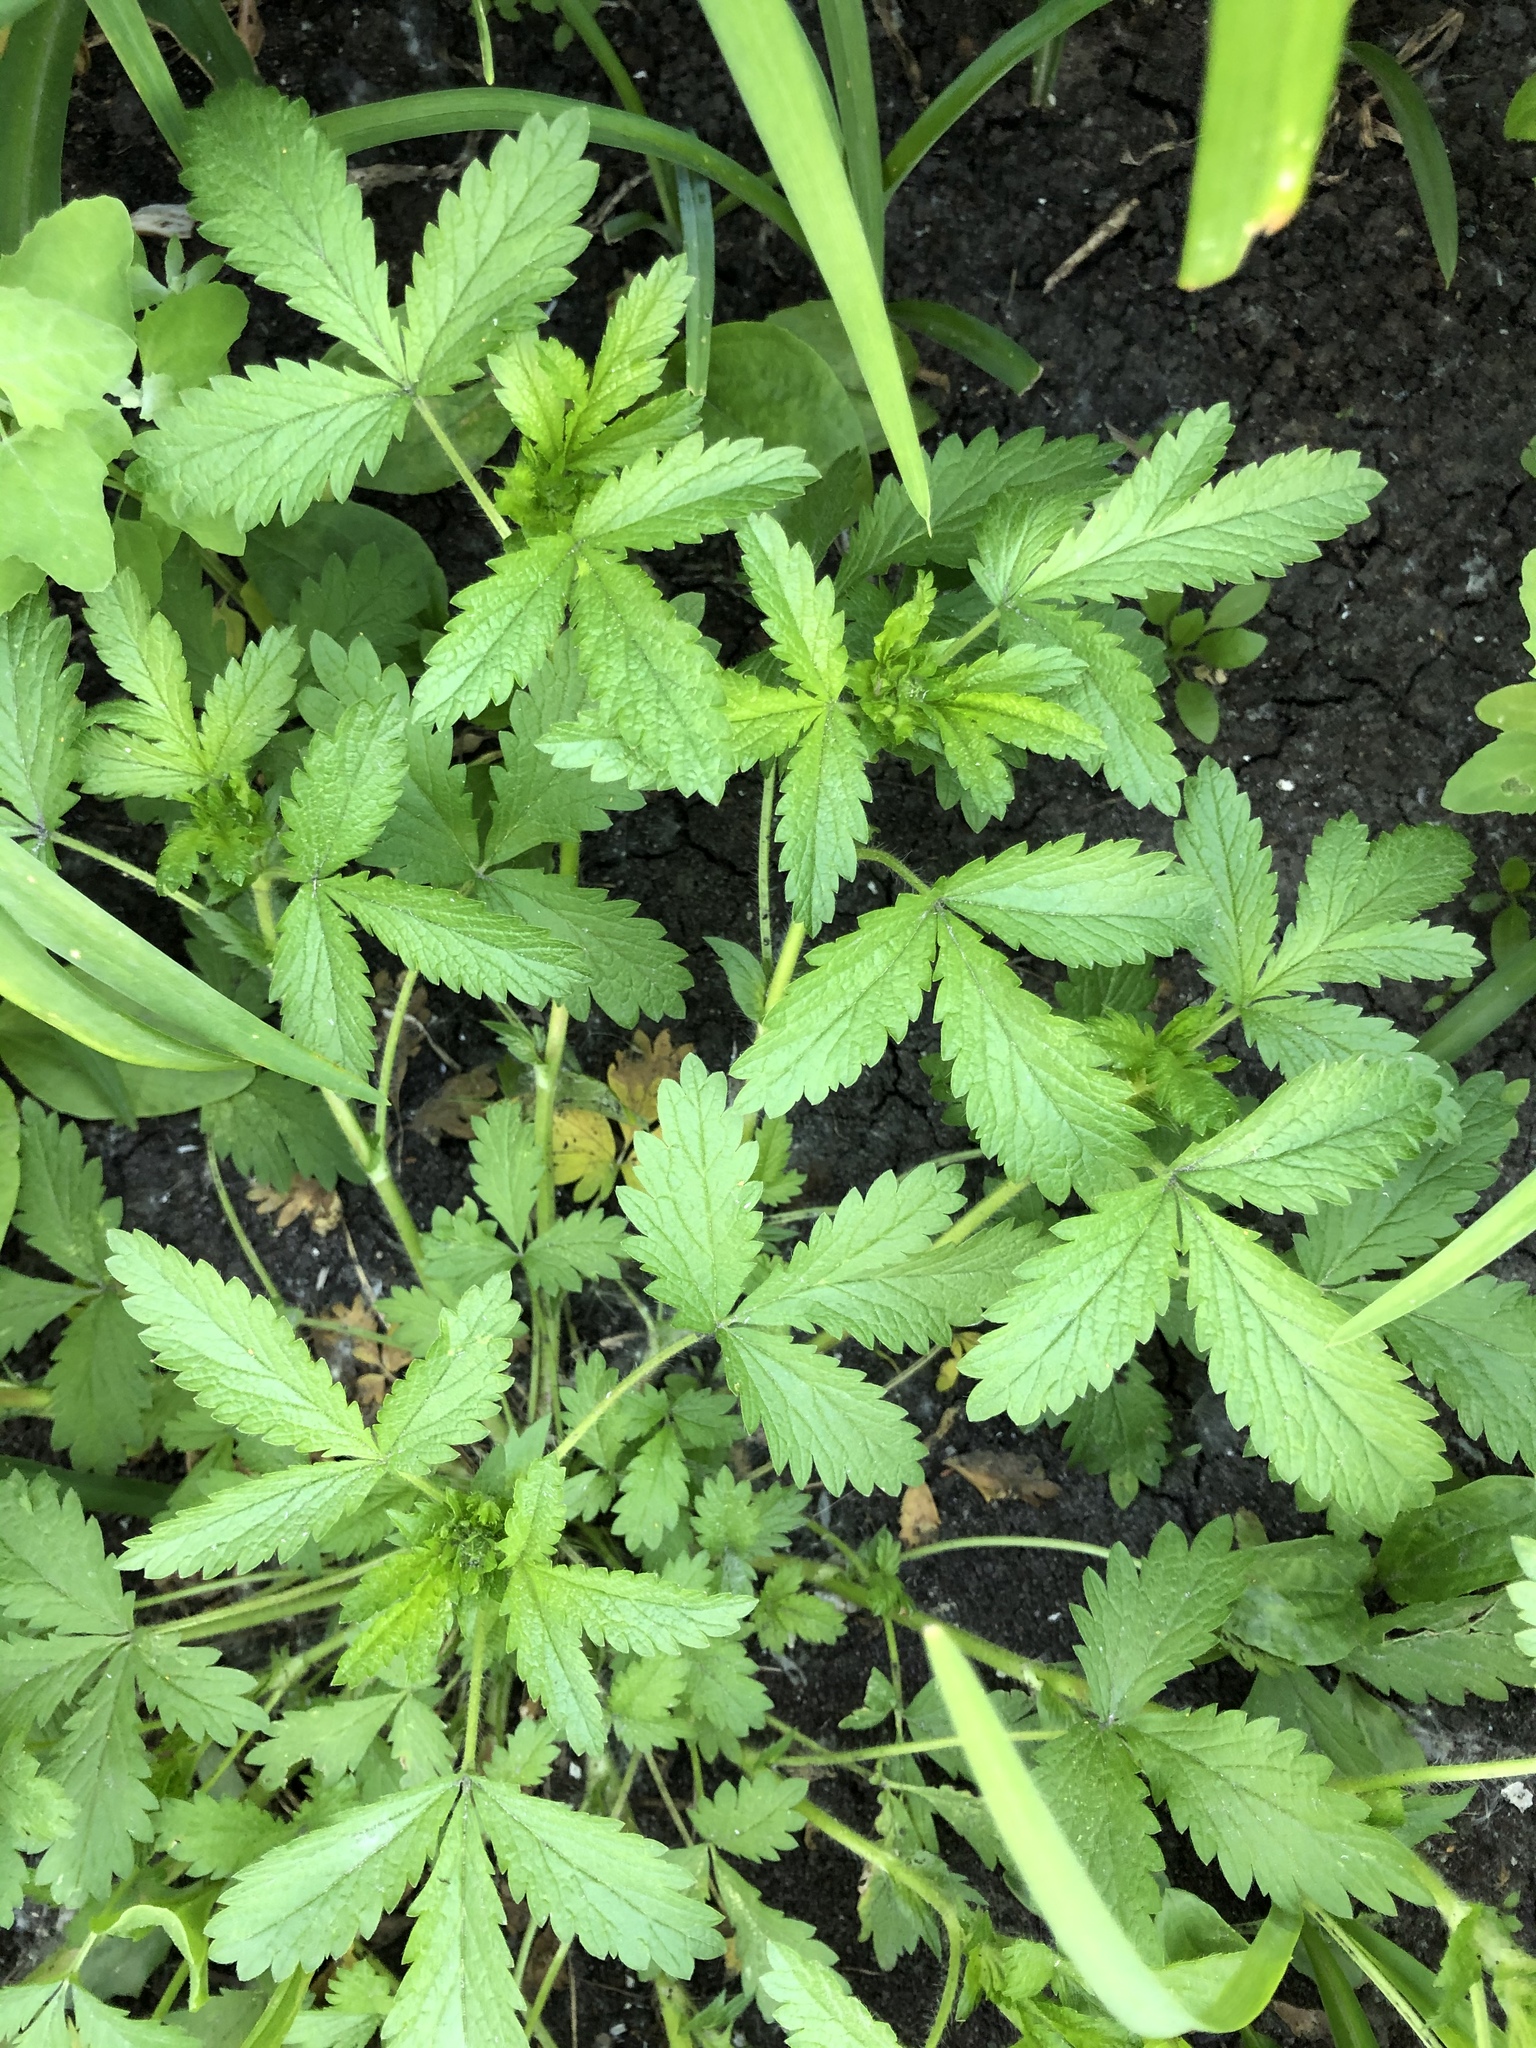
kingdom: Plantae
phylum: Tracheophyta
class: Magnoliopsida
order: Rosales
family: Rosaceae
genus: Potentilla
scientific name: Potentilla norvegica
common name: Ternate-leaved cinquefoil
